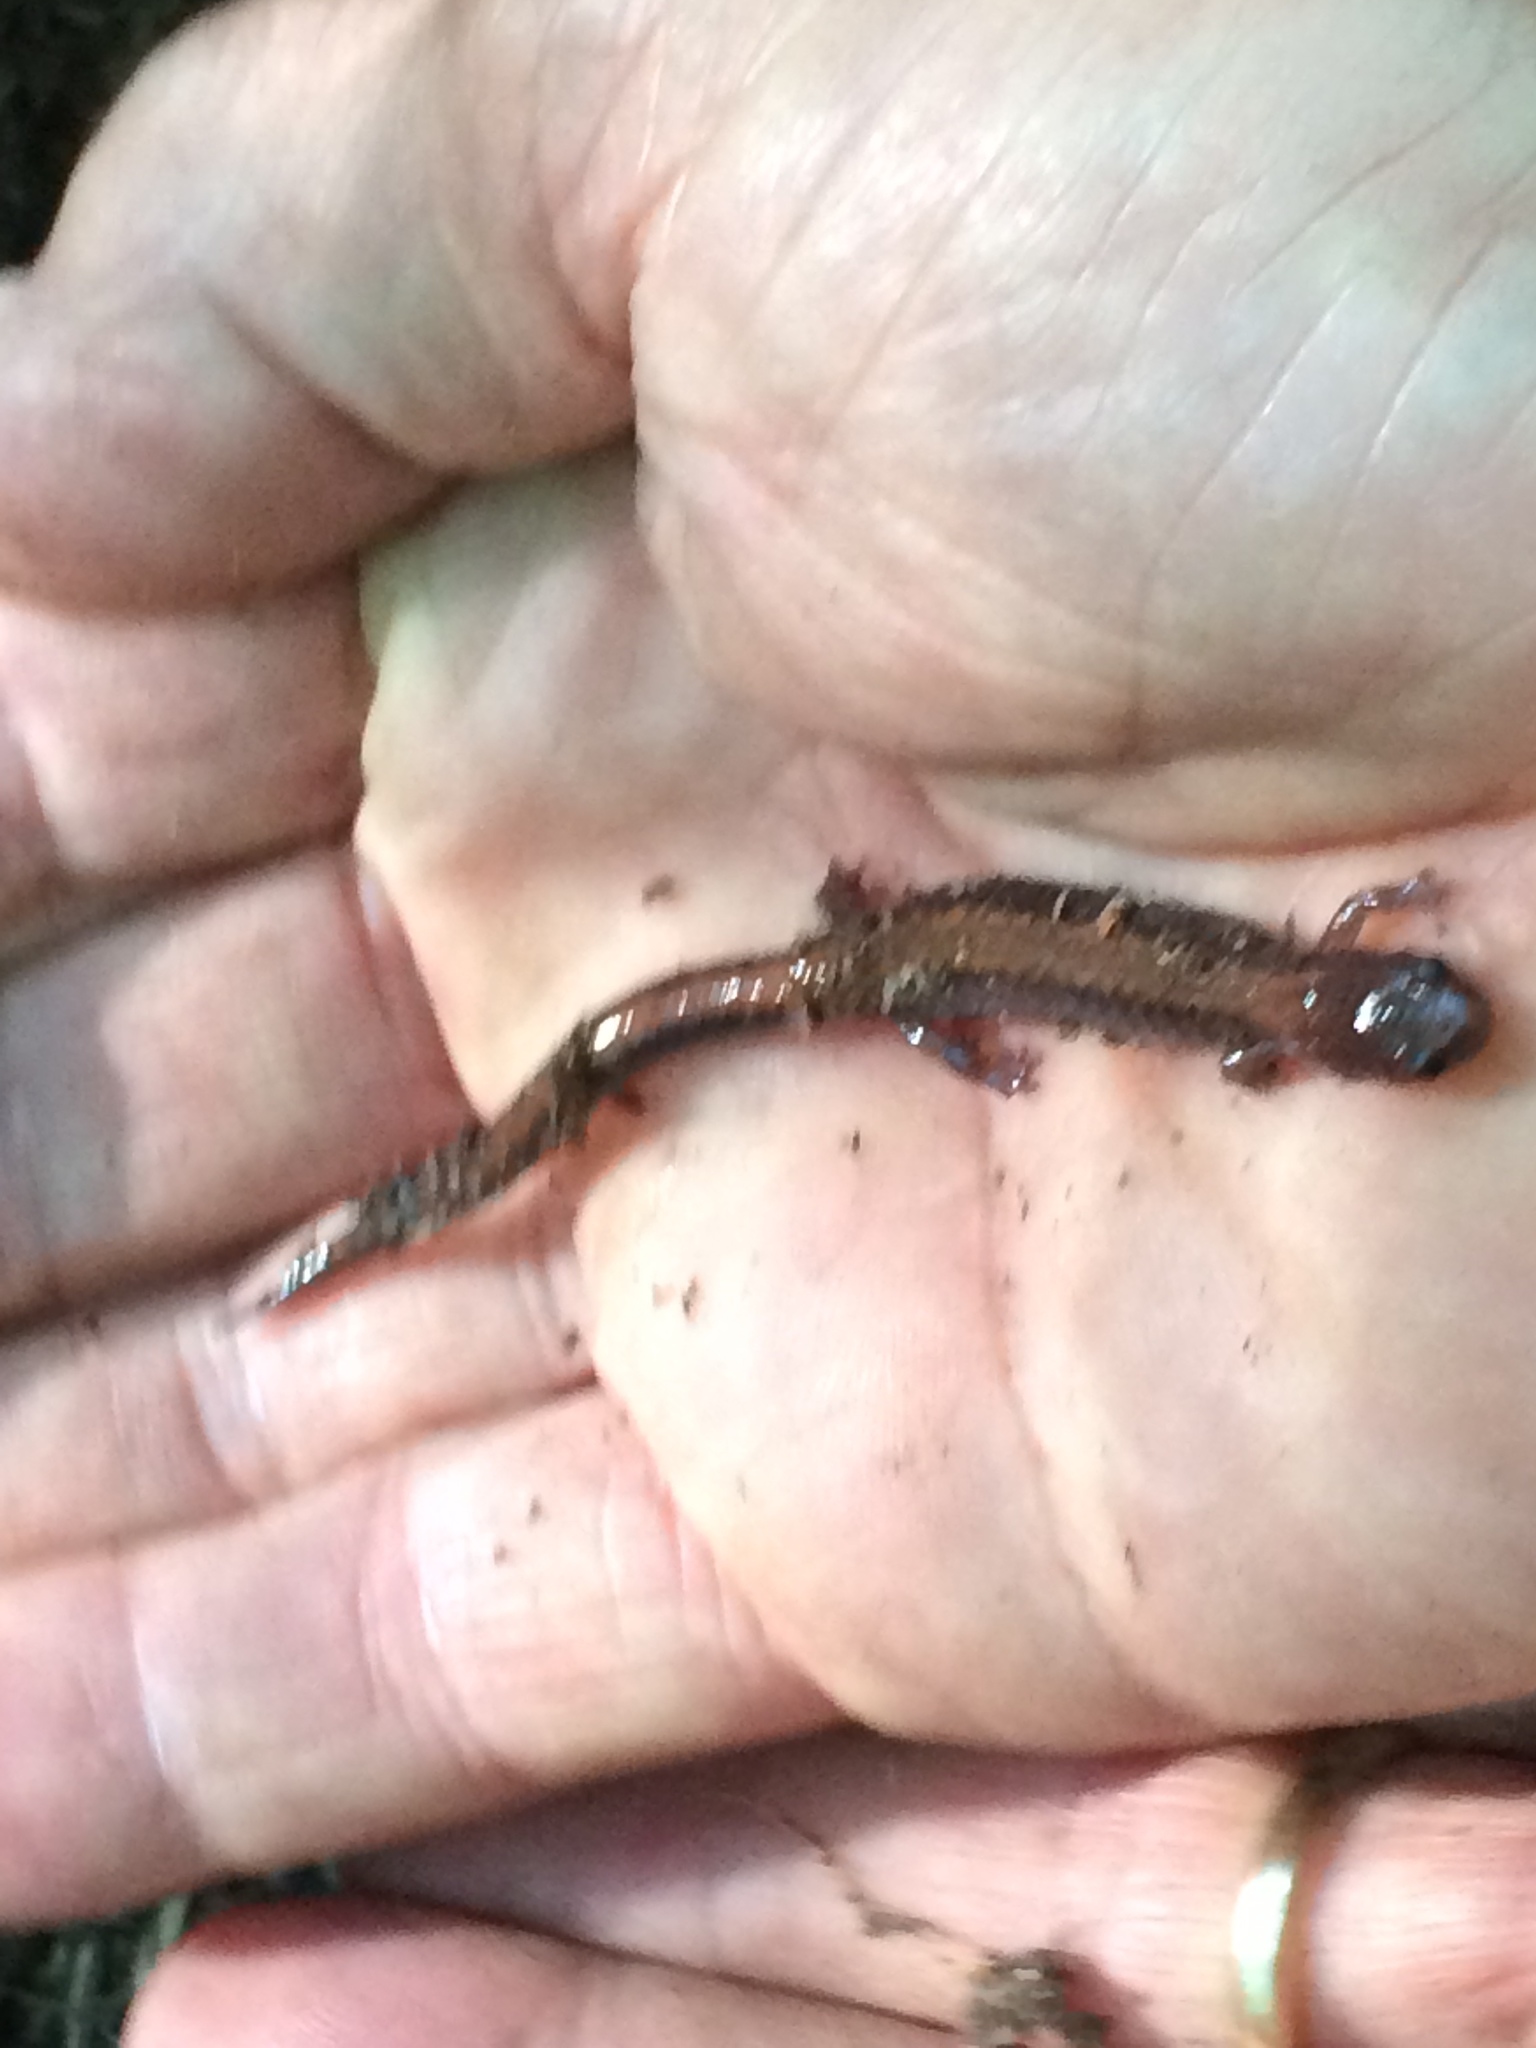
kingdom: Animalia
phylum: Chordata
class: Amphibia
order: Caudata
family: Plethodontidae
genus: Plethodon
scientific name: Plethodon cinereus
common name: Redback salamander
